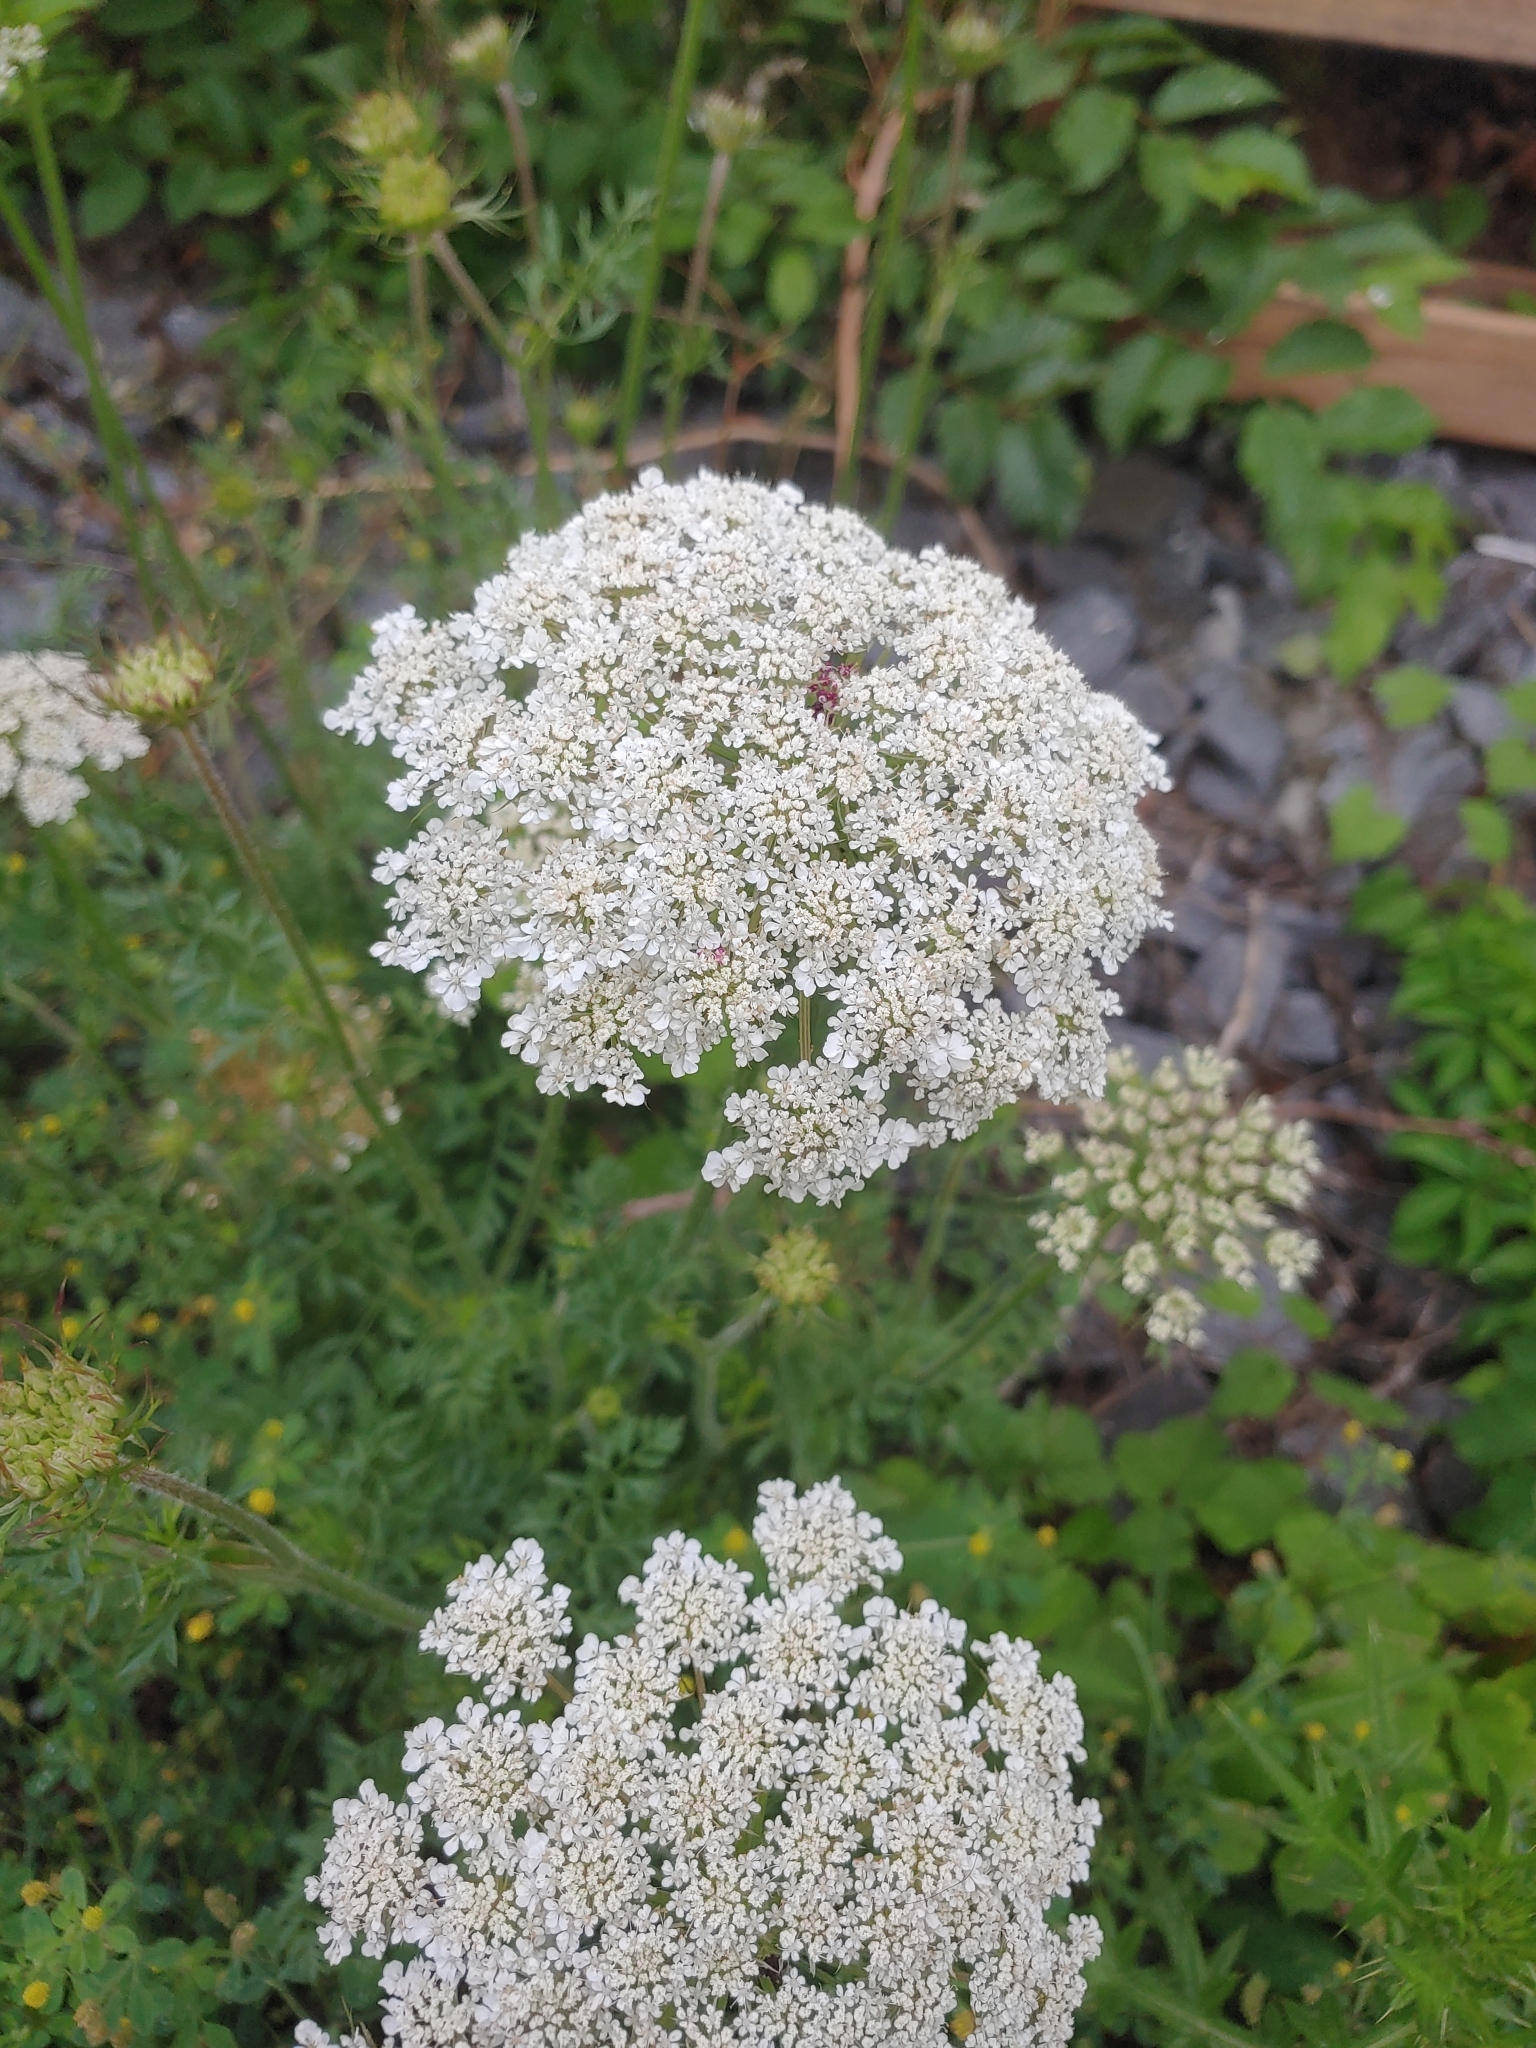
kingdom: Plantae
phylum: Tracheophyta
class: Magnoliopsida
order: Apiales
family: Apiaceae
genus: Daucus
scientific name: Daucus carota
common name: Wild carrot
